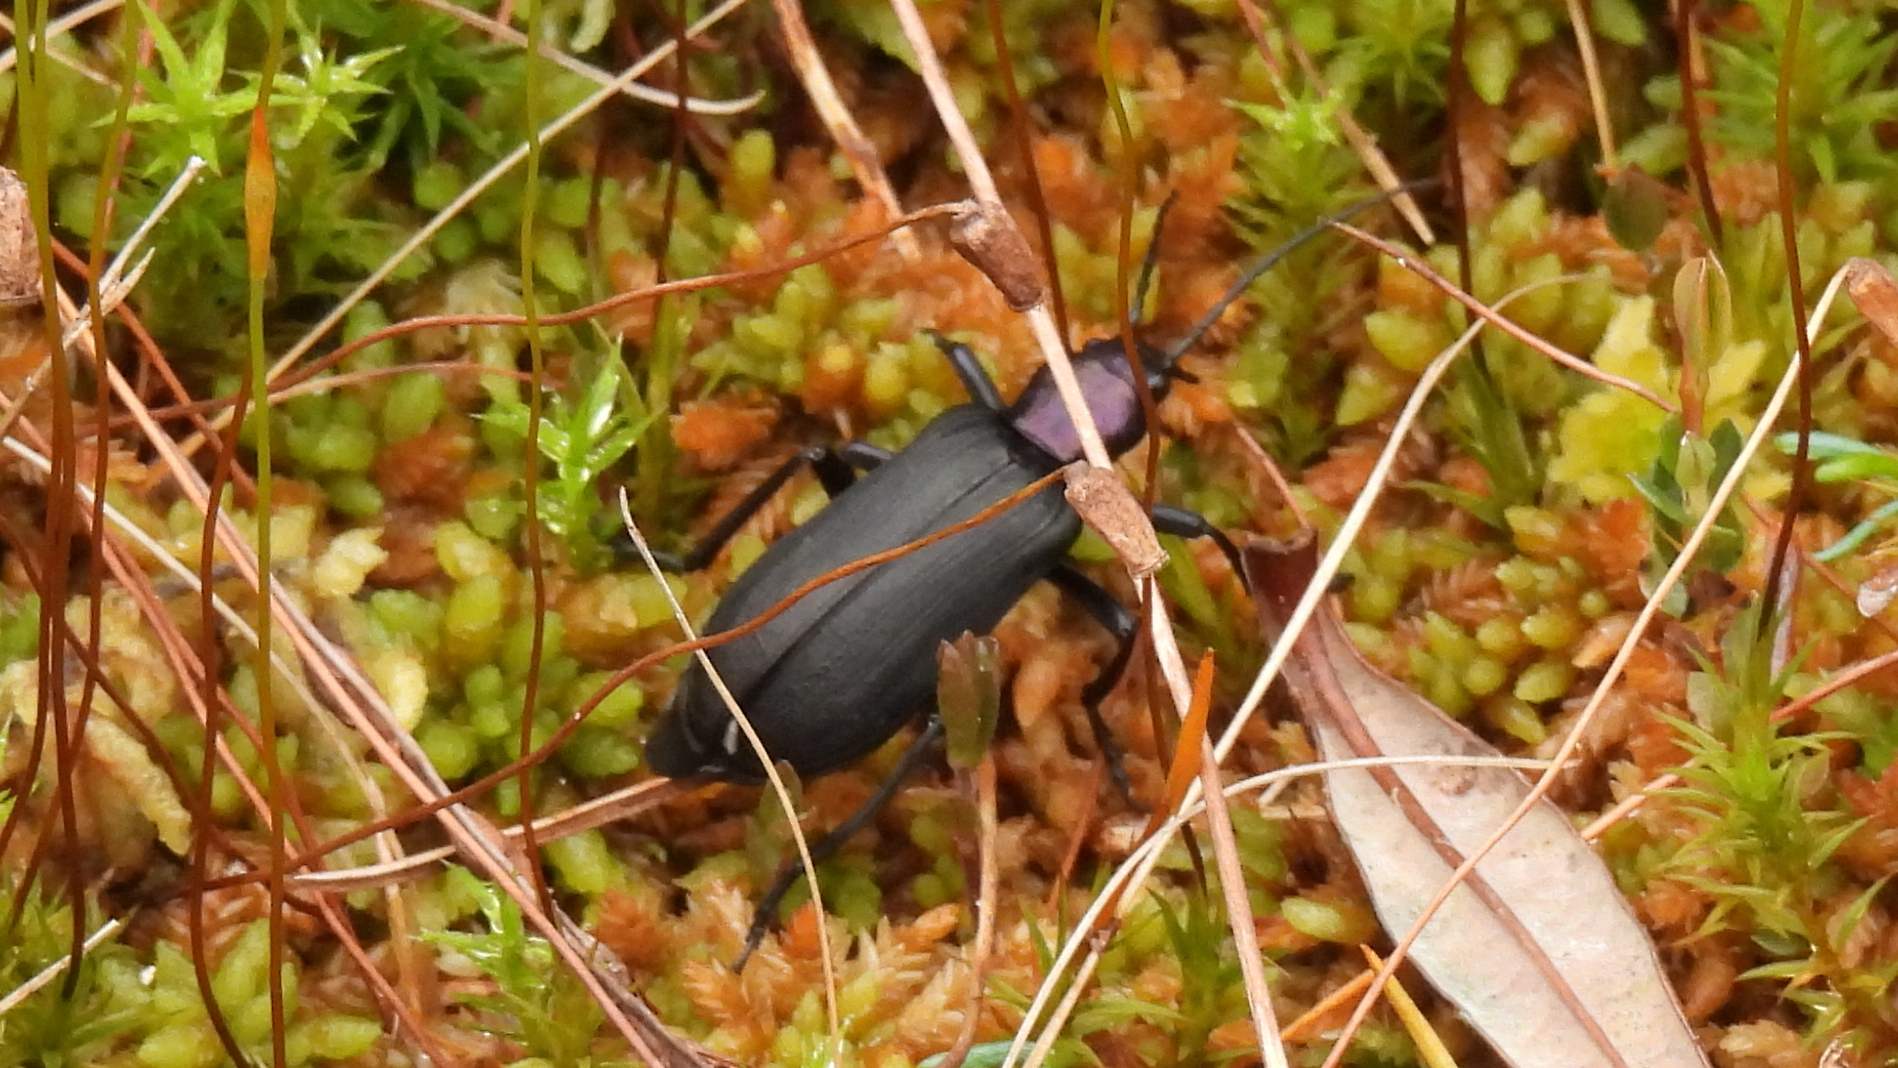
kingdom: Animalia
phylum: Arthropoda
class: Insecta
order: Coleoptera
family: Oedemeridae
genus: Ditylus
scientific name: Ditylus gracilis
